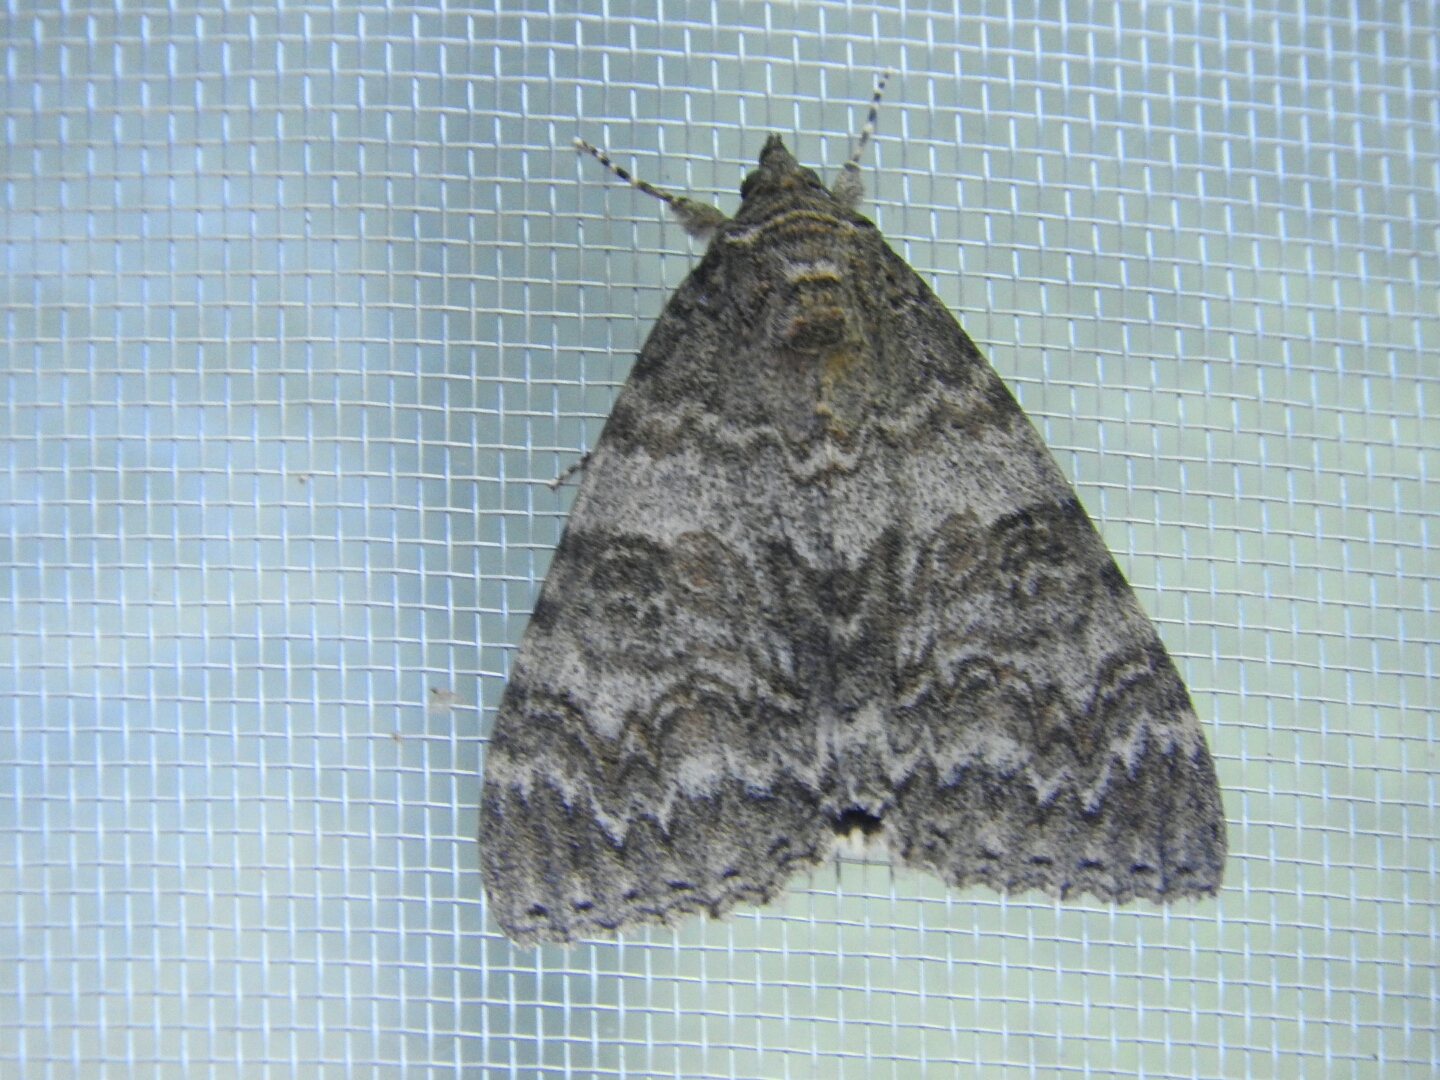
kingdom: Animalia
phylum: Arthropoda
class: Insecta
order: Lepidoptera
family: Erebidae
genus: Catocala
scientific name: Catocala nupta
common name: Red underwing
